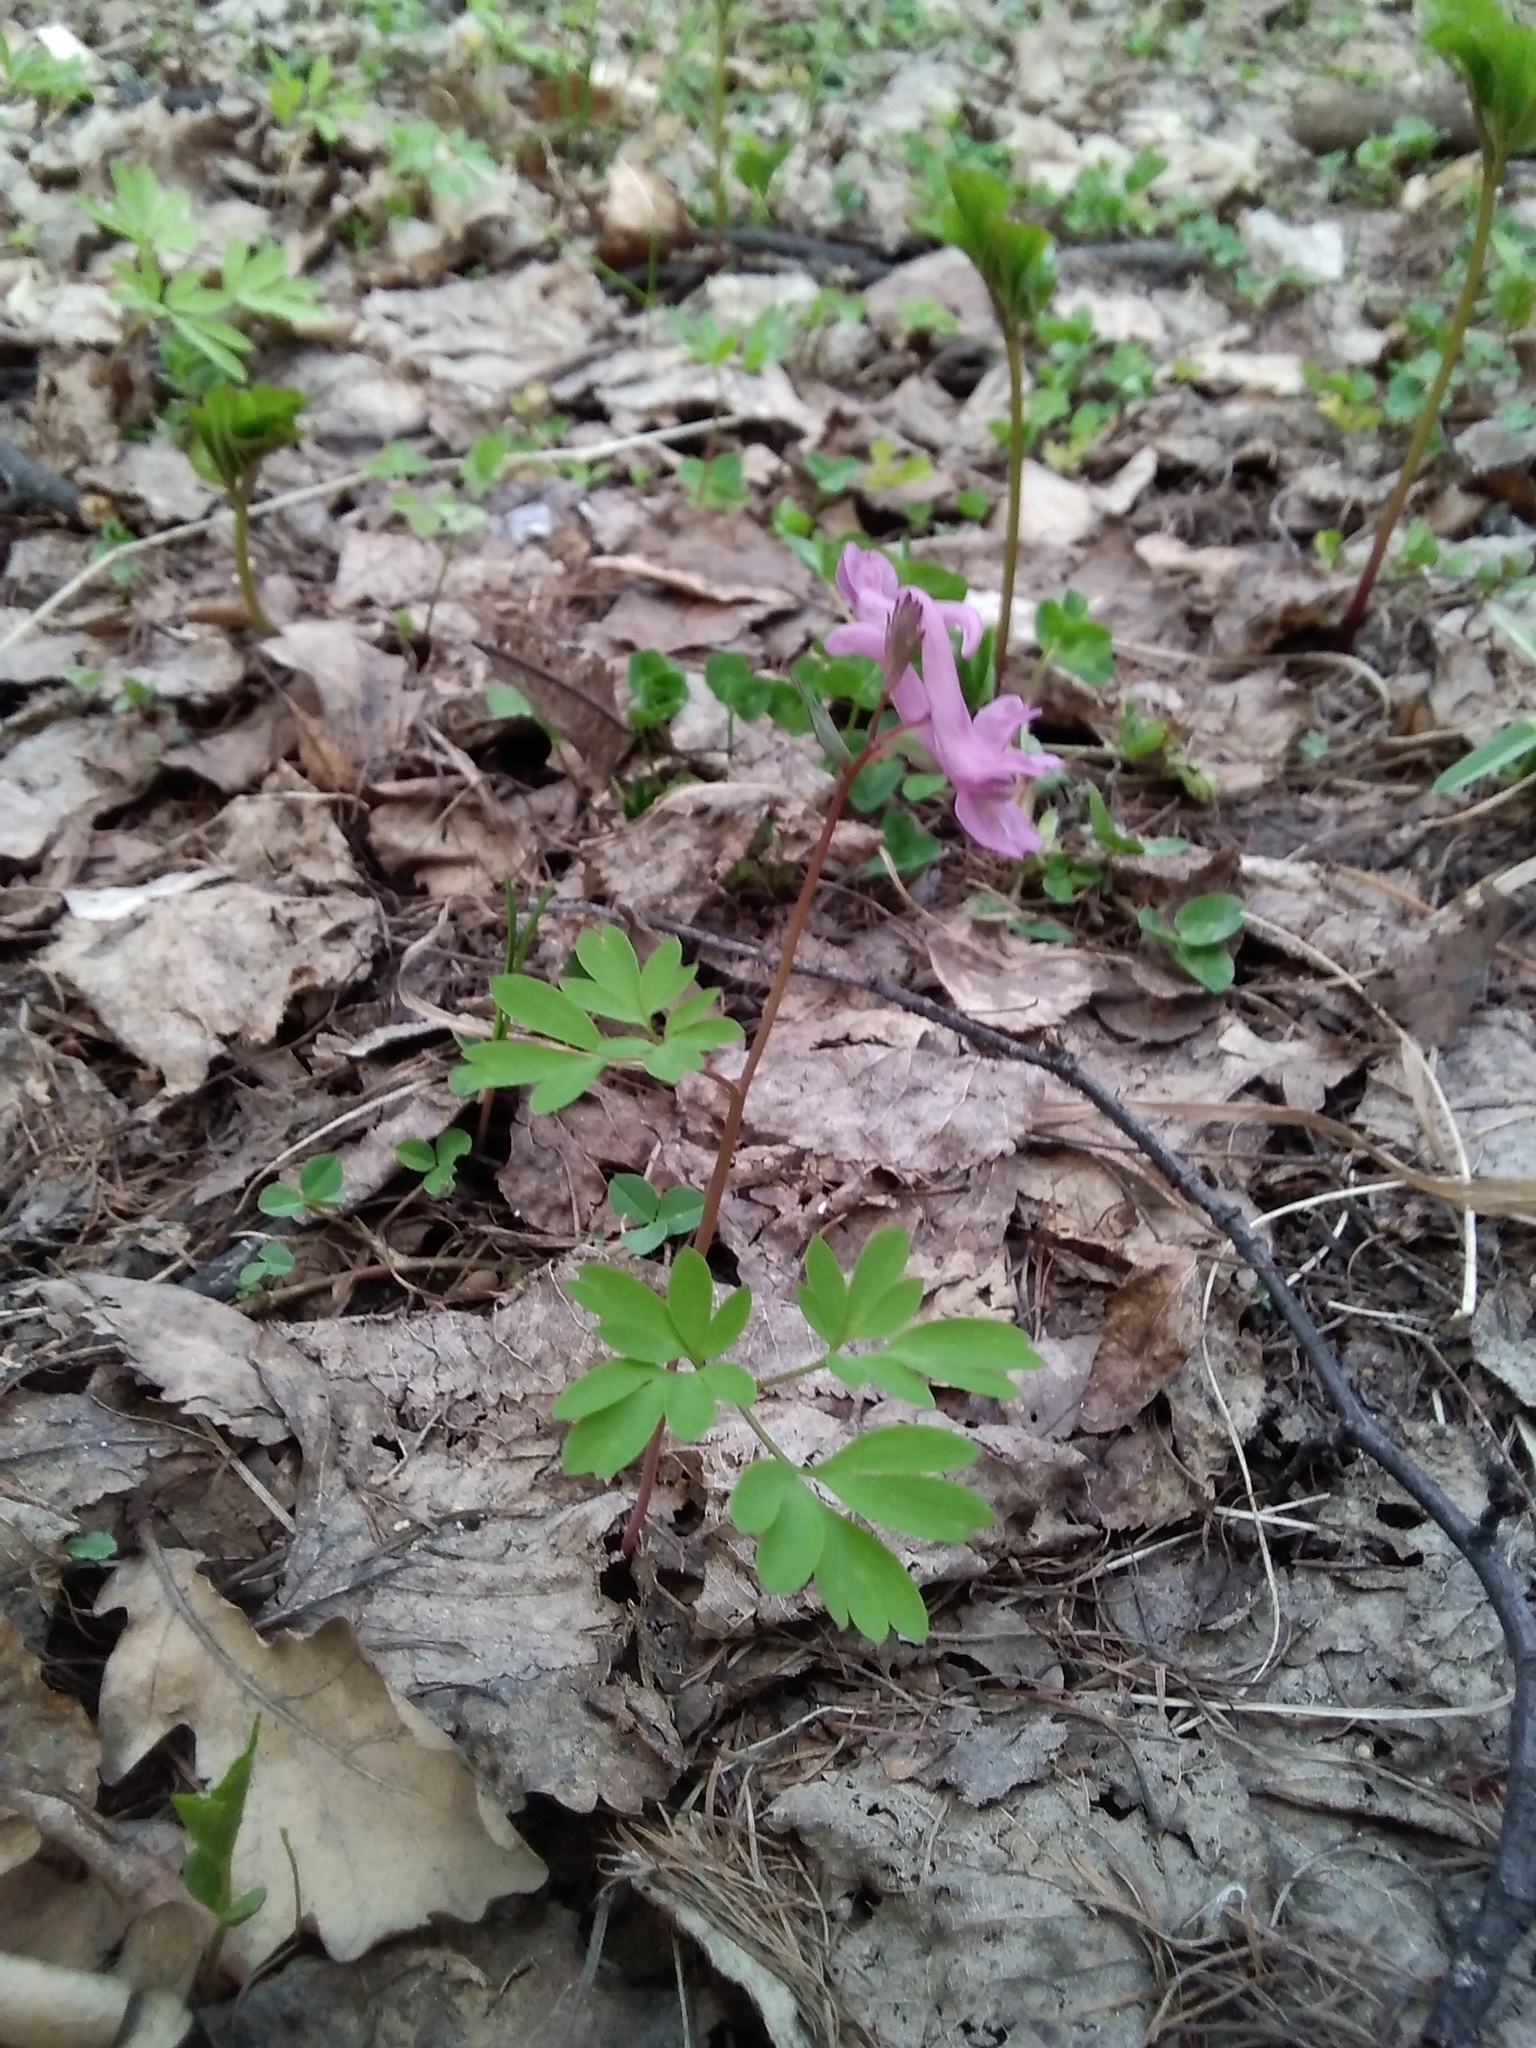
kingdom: Plantae
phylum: Tracheophyta
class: Magnoliopsida
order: Ranunculales
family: Papaveraceae
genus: Corydalis
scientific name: Corydalis solida
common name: Bird-in-a-bush
